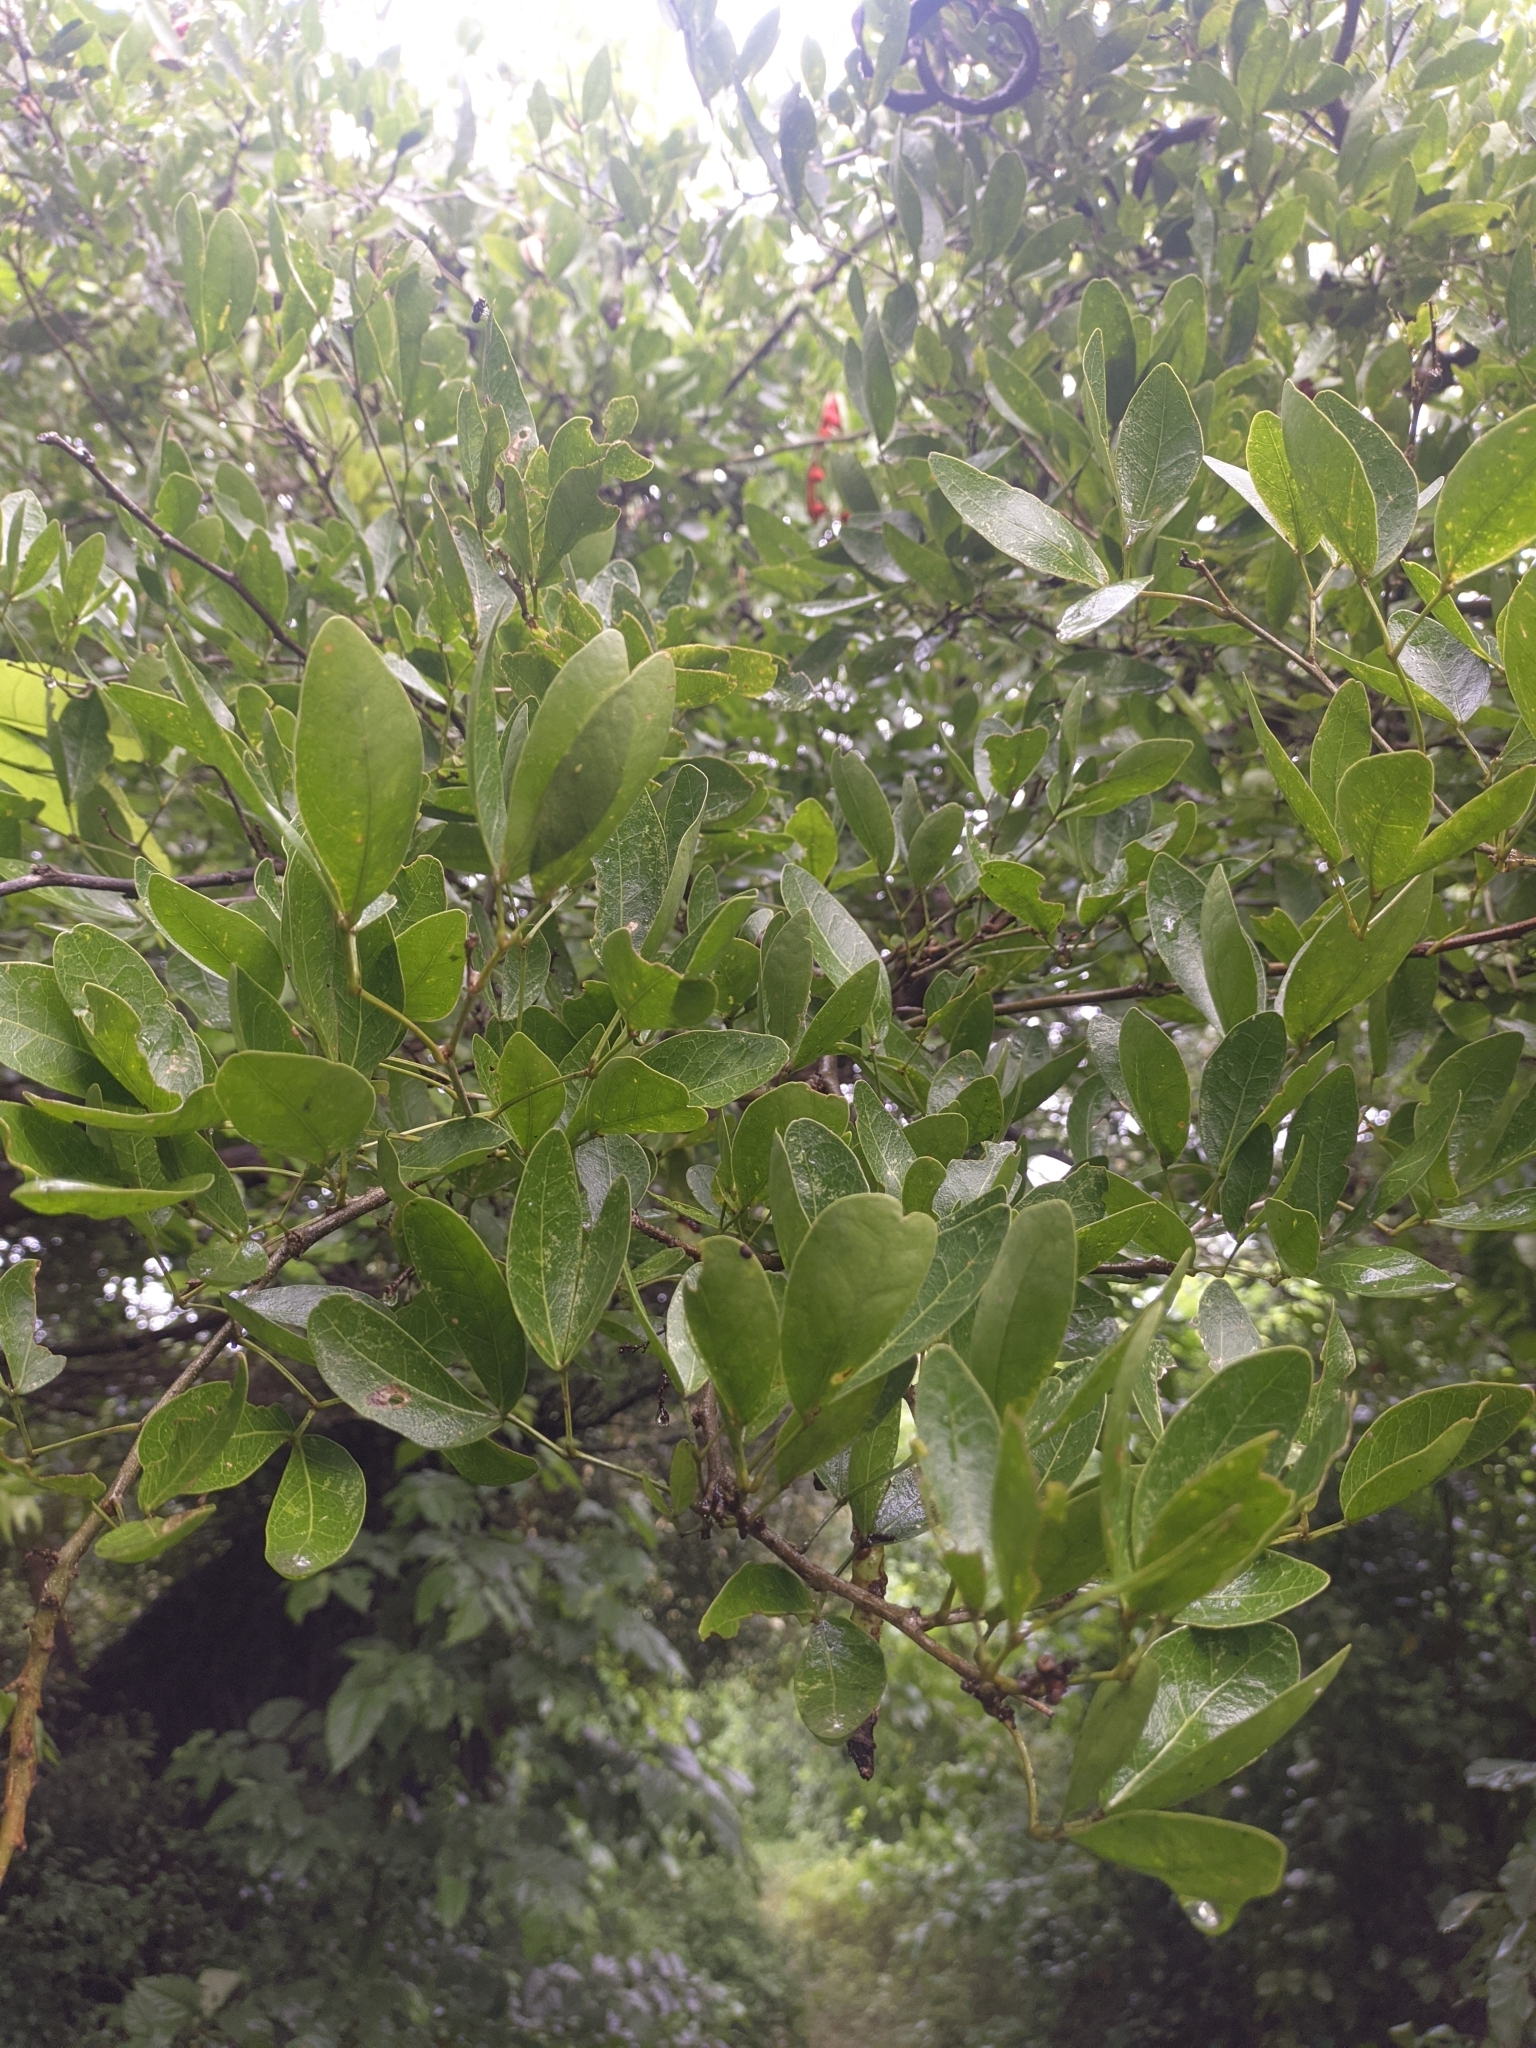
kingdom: Plantae
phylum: Tracheophyta
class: Magnoliopsida
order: Fabales
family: Fabaceae
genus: Pithecellobium
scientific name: Pithecellobium lanceolatum
